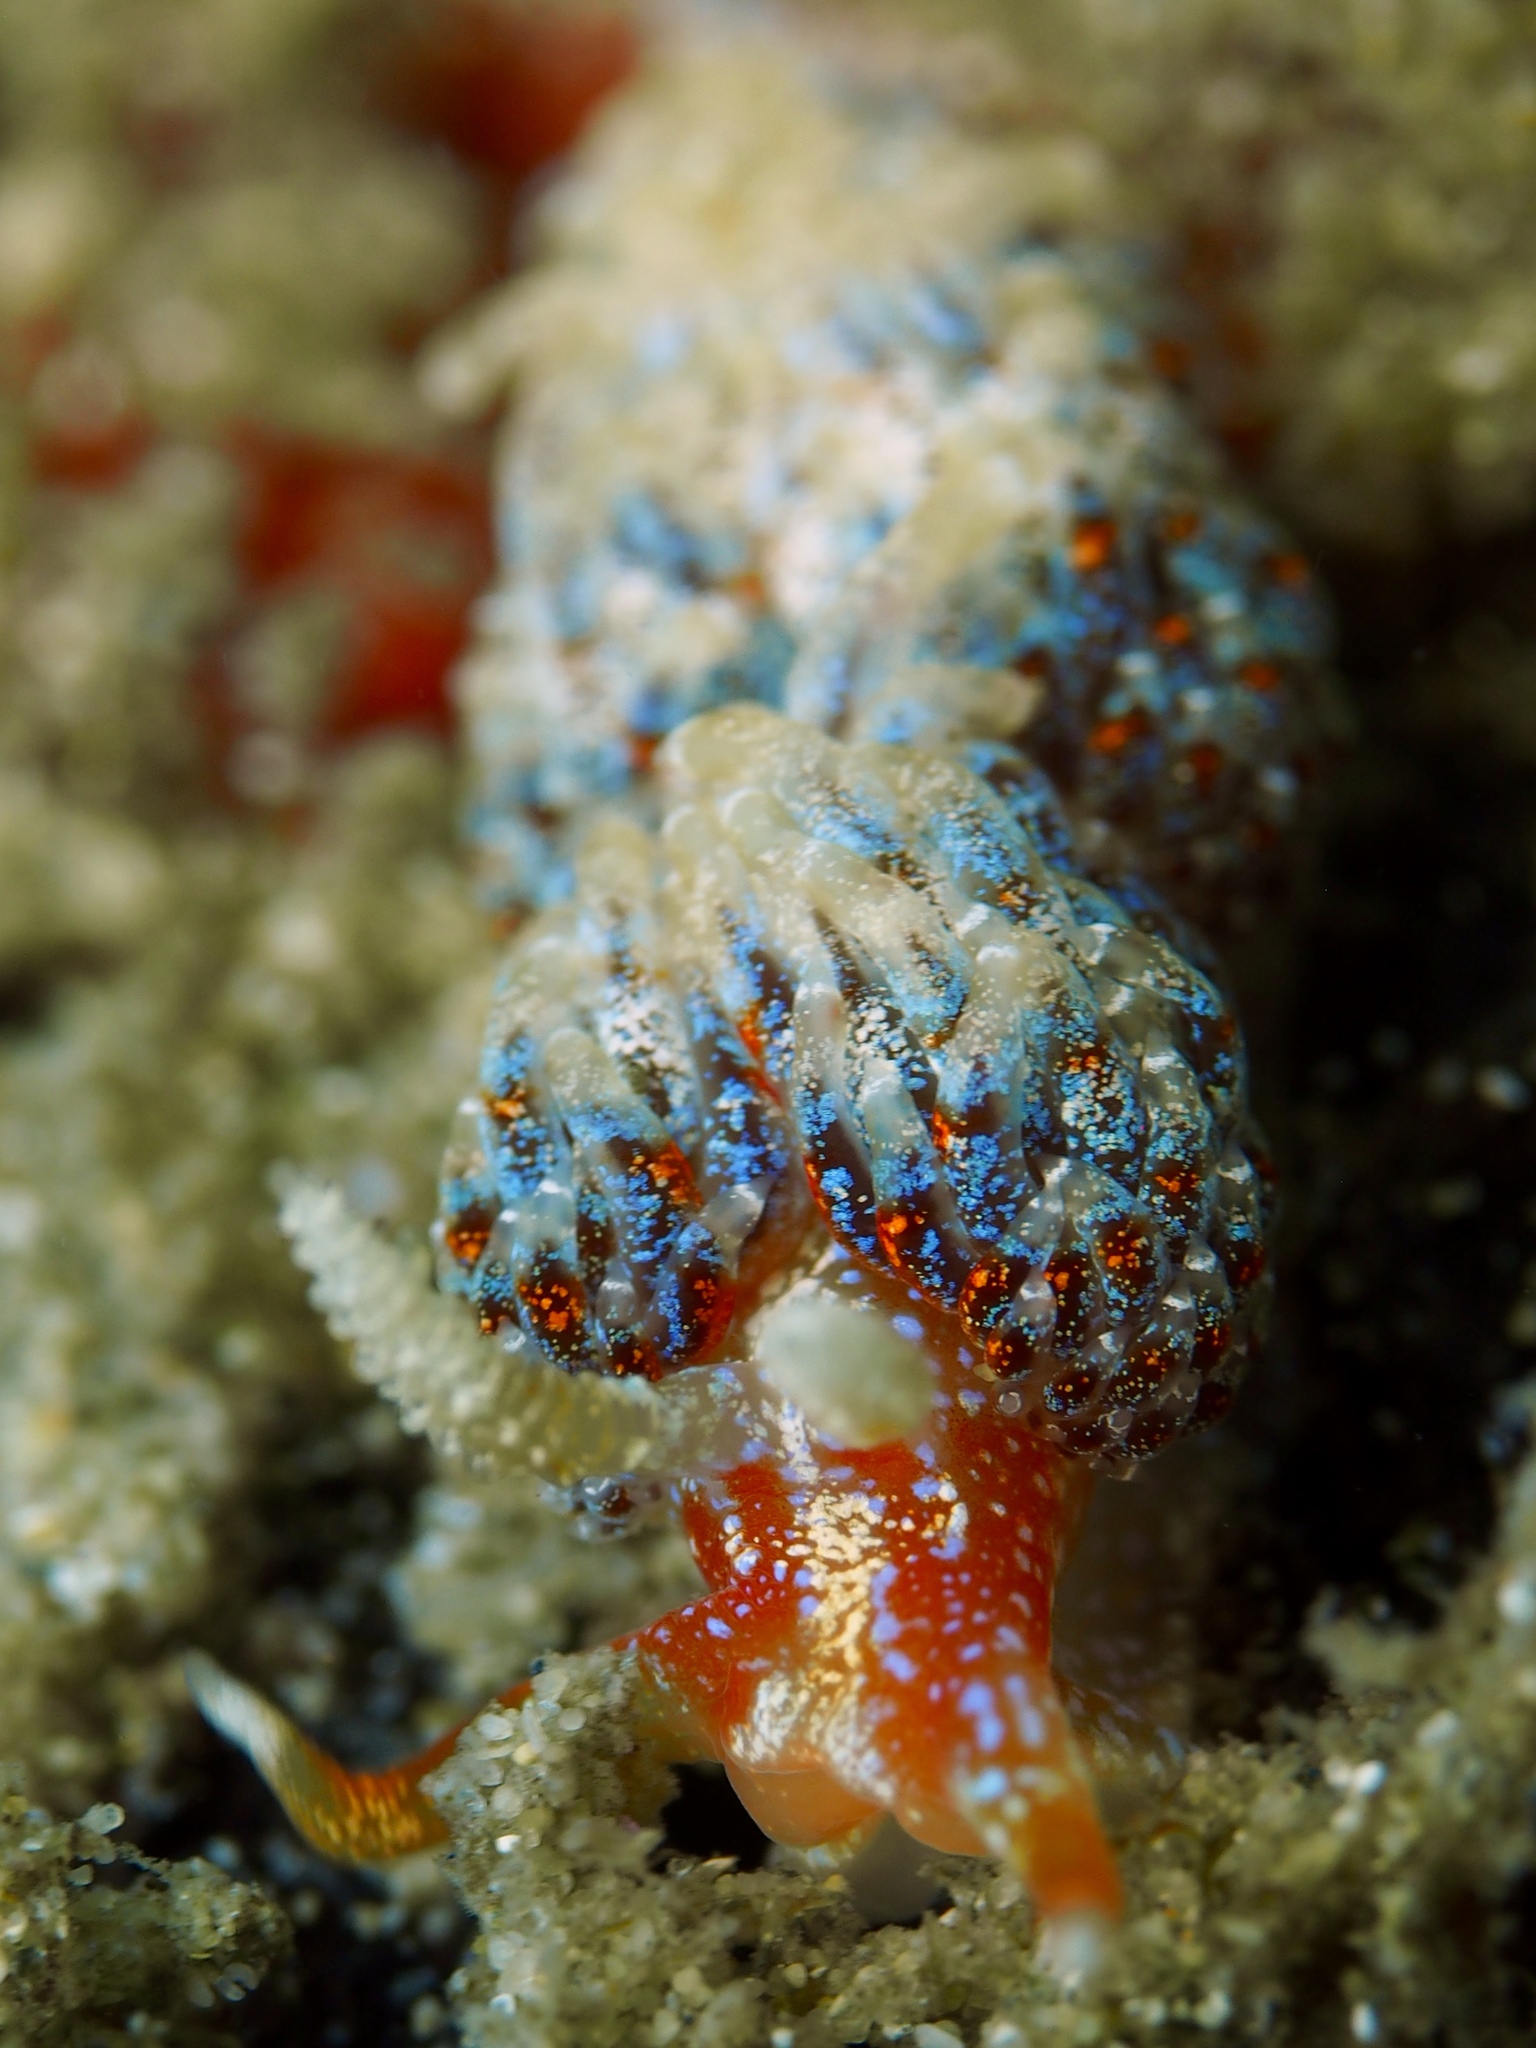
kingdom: Animalia
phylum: Mollusca
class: Gastropoda
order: Nudibranchia
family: Facelinidae
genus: Austraeolis
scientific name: Austraeolis ornata
